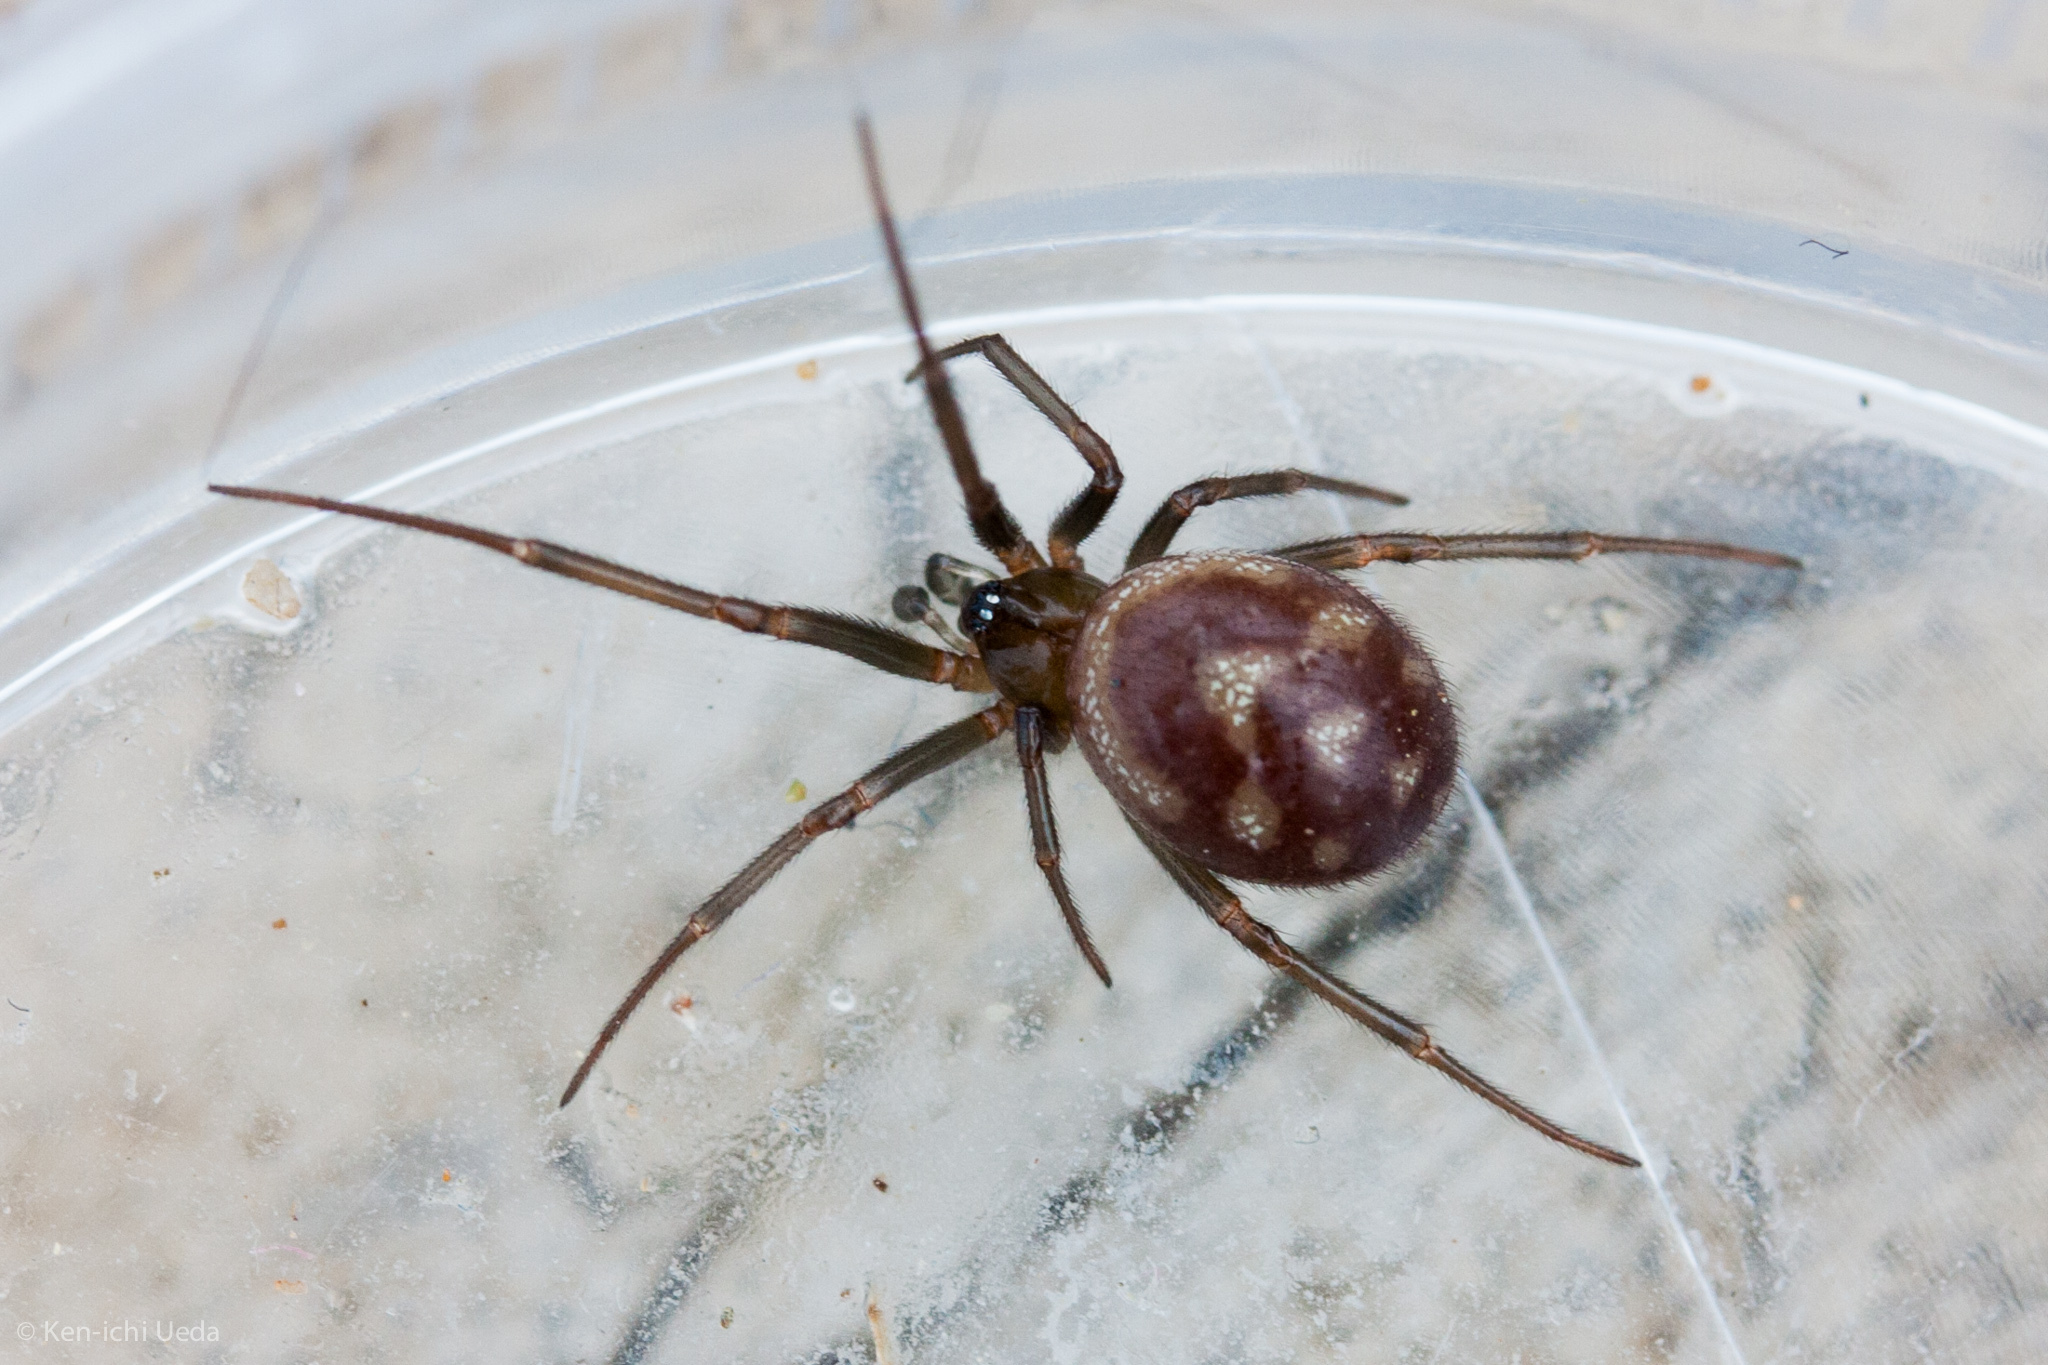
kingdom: Animalia
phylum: Arthropoda
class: Arachnida
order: Araneae
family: Theridiidae
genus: Steatoda
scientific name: Steatoda grossa
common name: False black widow
